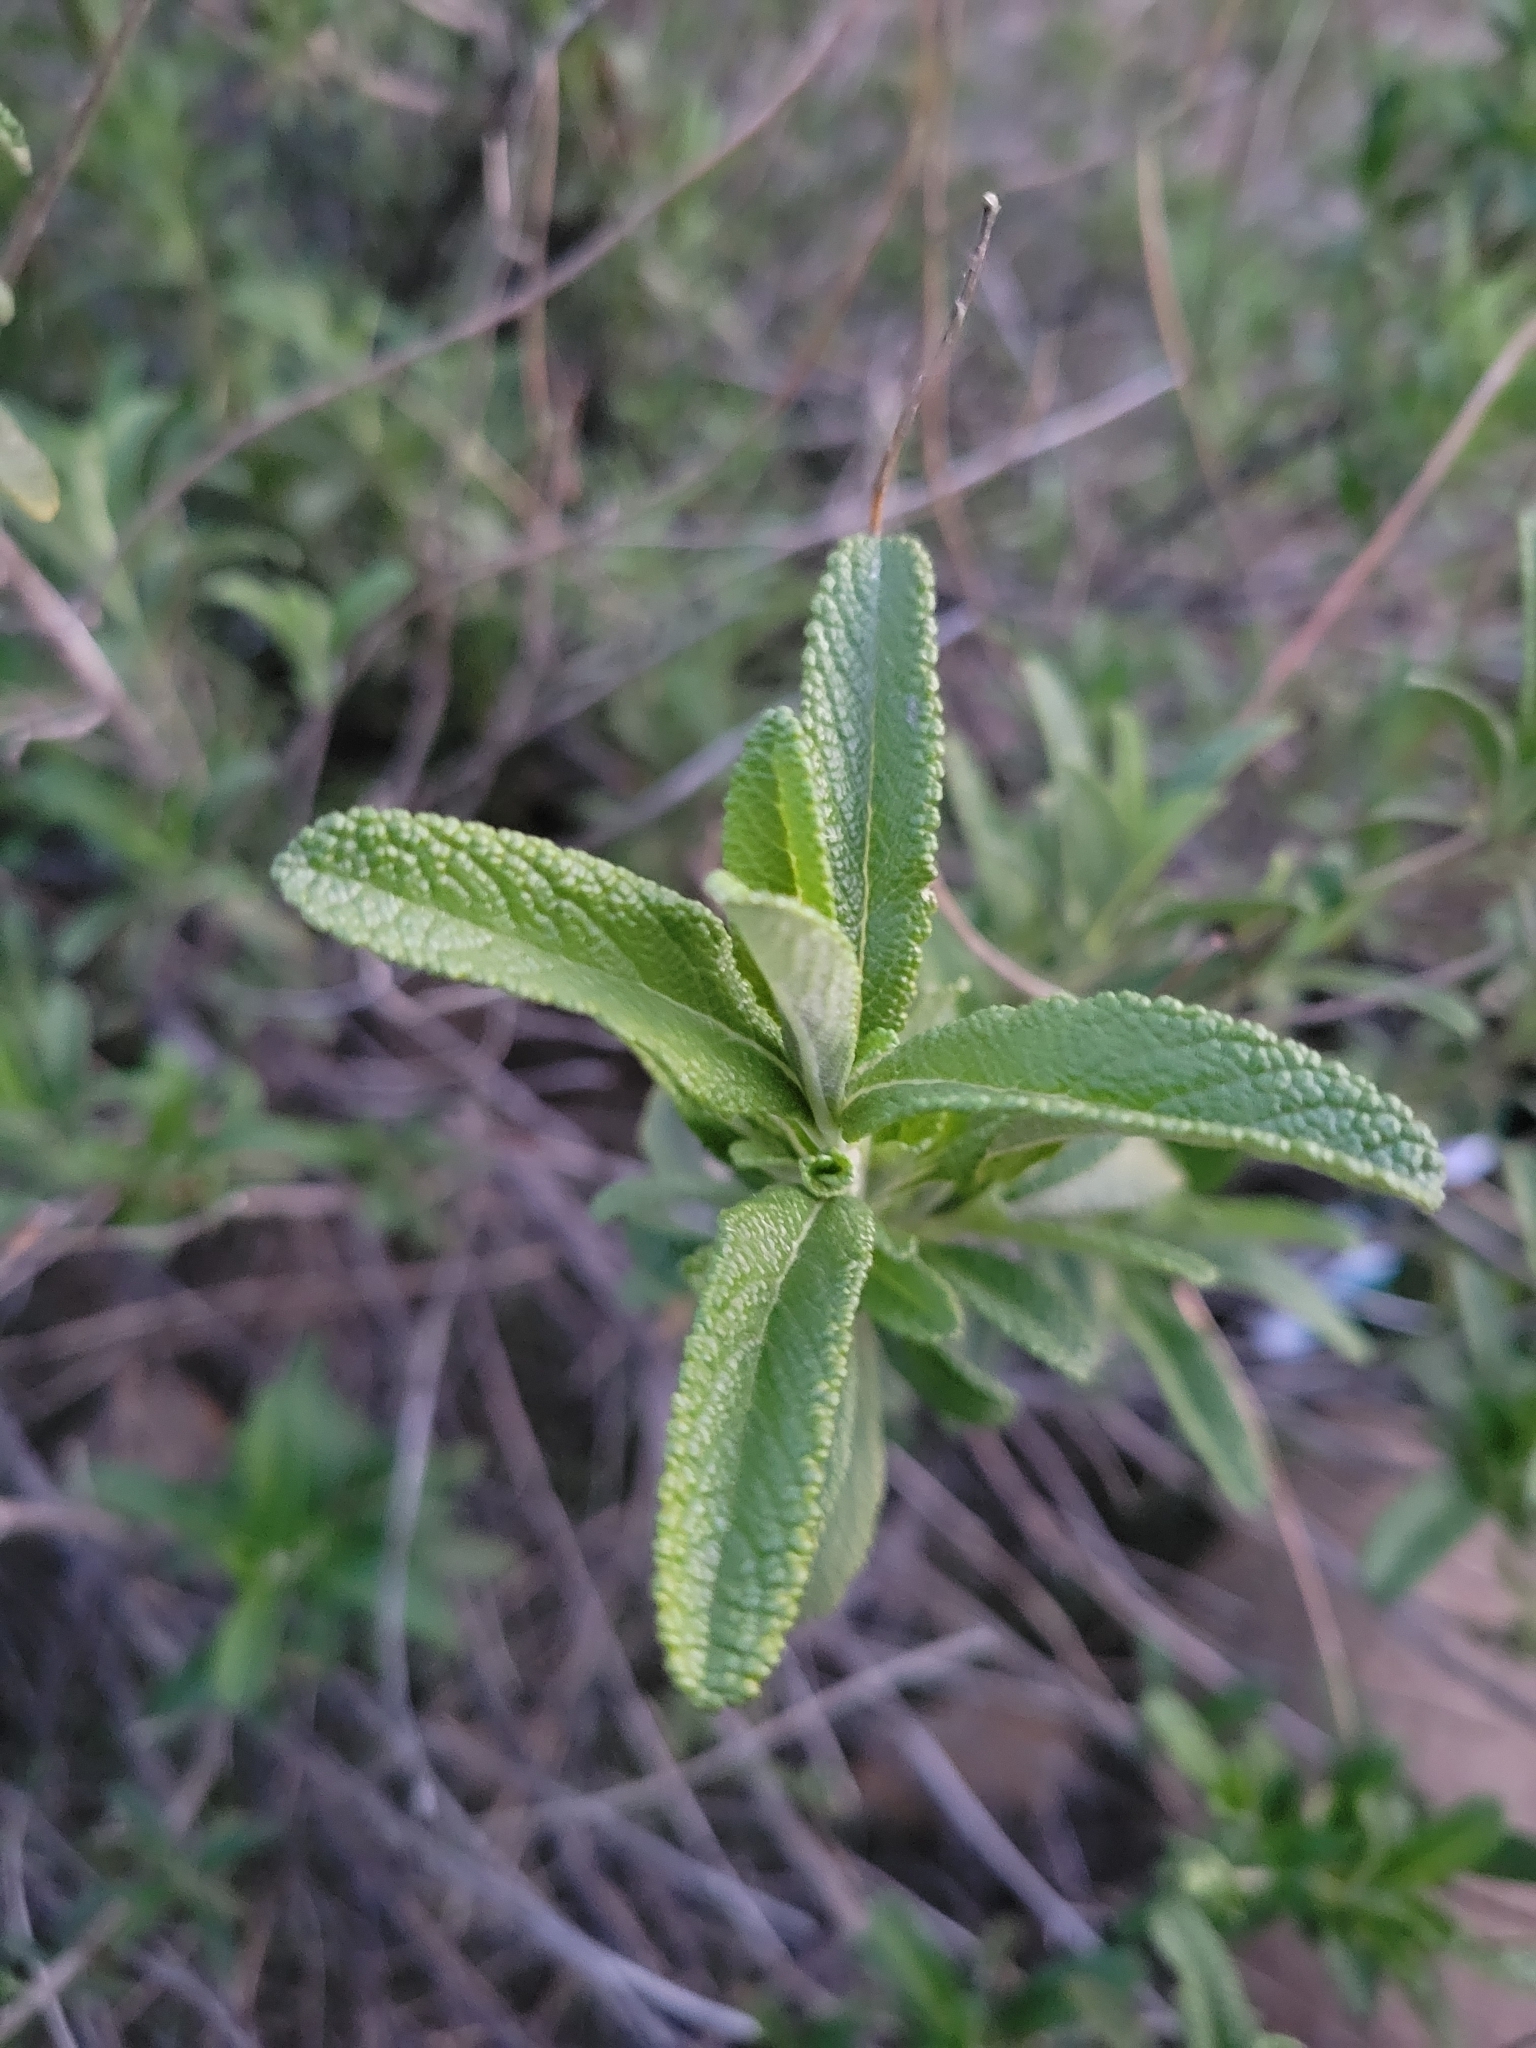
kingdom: Plantae
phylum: Tracheophyta
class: Magnoliopsida
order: Lamiales
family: Lamiaceae
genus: Salvia
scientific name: Salvia mellifera
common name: Black sage
